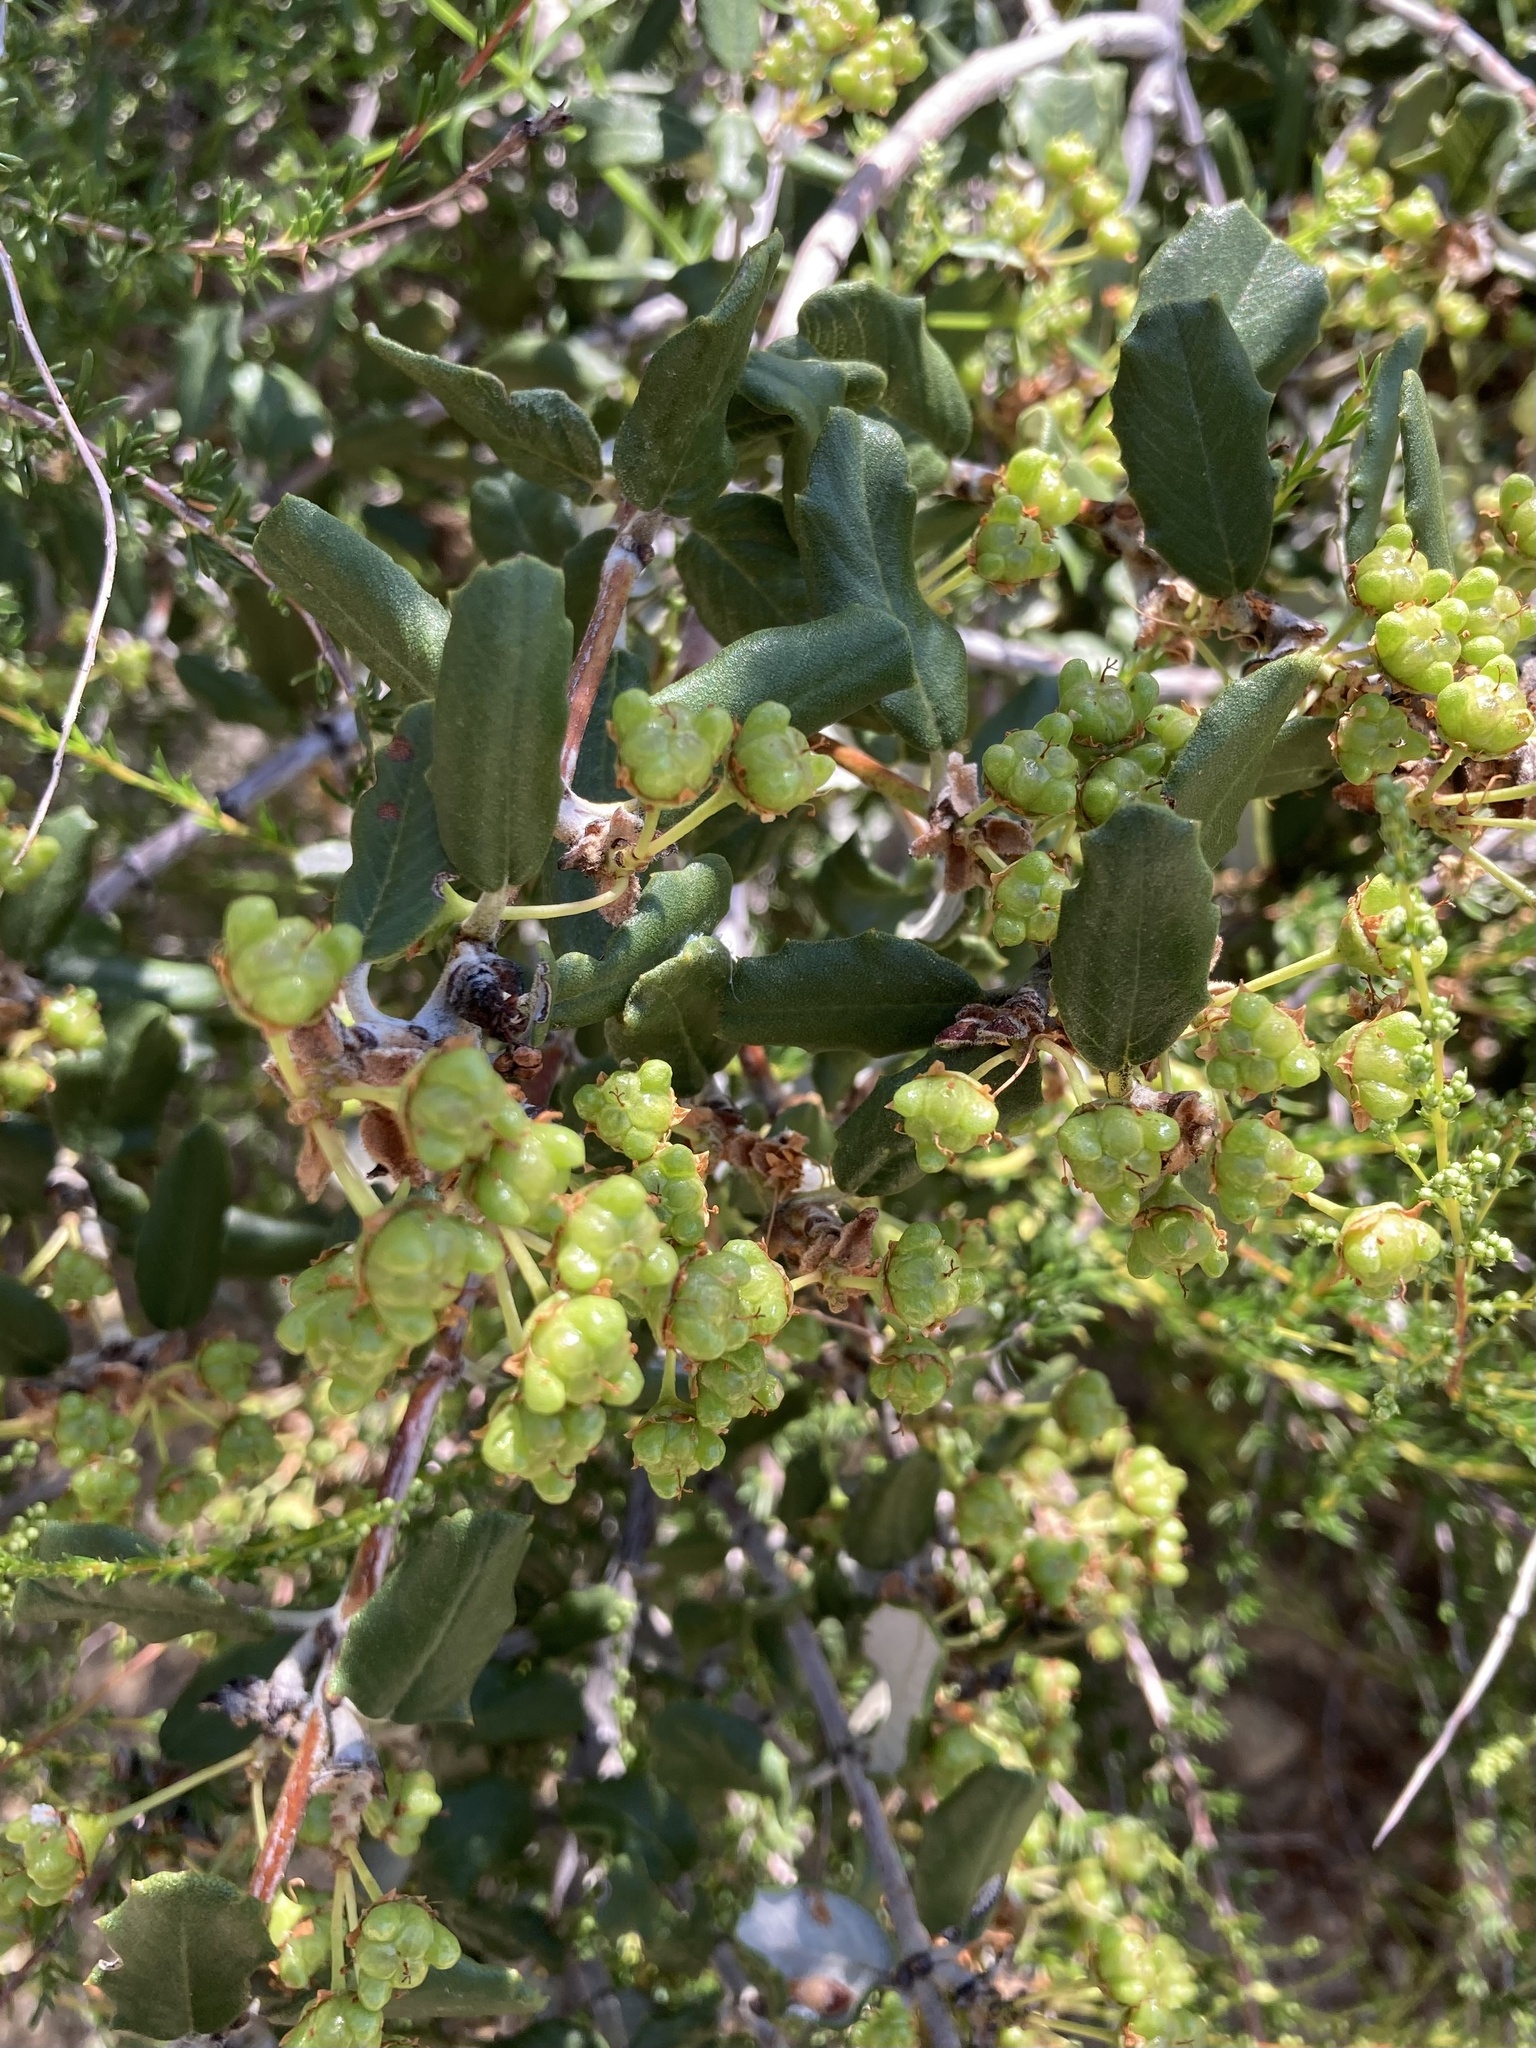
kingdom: Plantae
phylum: Tracheophyta
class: Magnoliopsida
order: Rosales
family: Rhamnaceae
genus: Ceanothus
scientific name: Ceanothus crassifolius
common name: Hoaryleaf ceanothus
